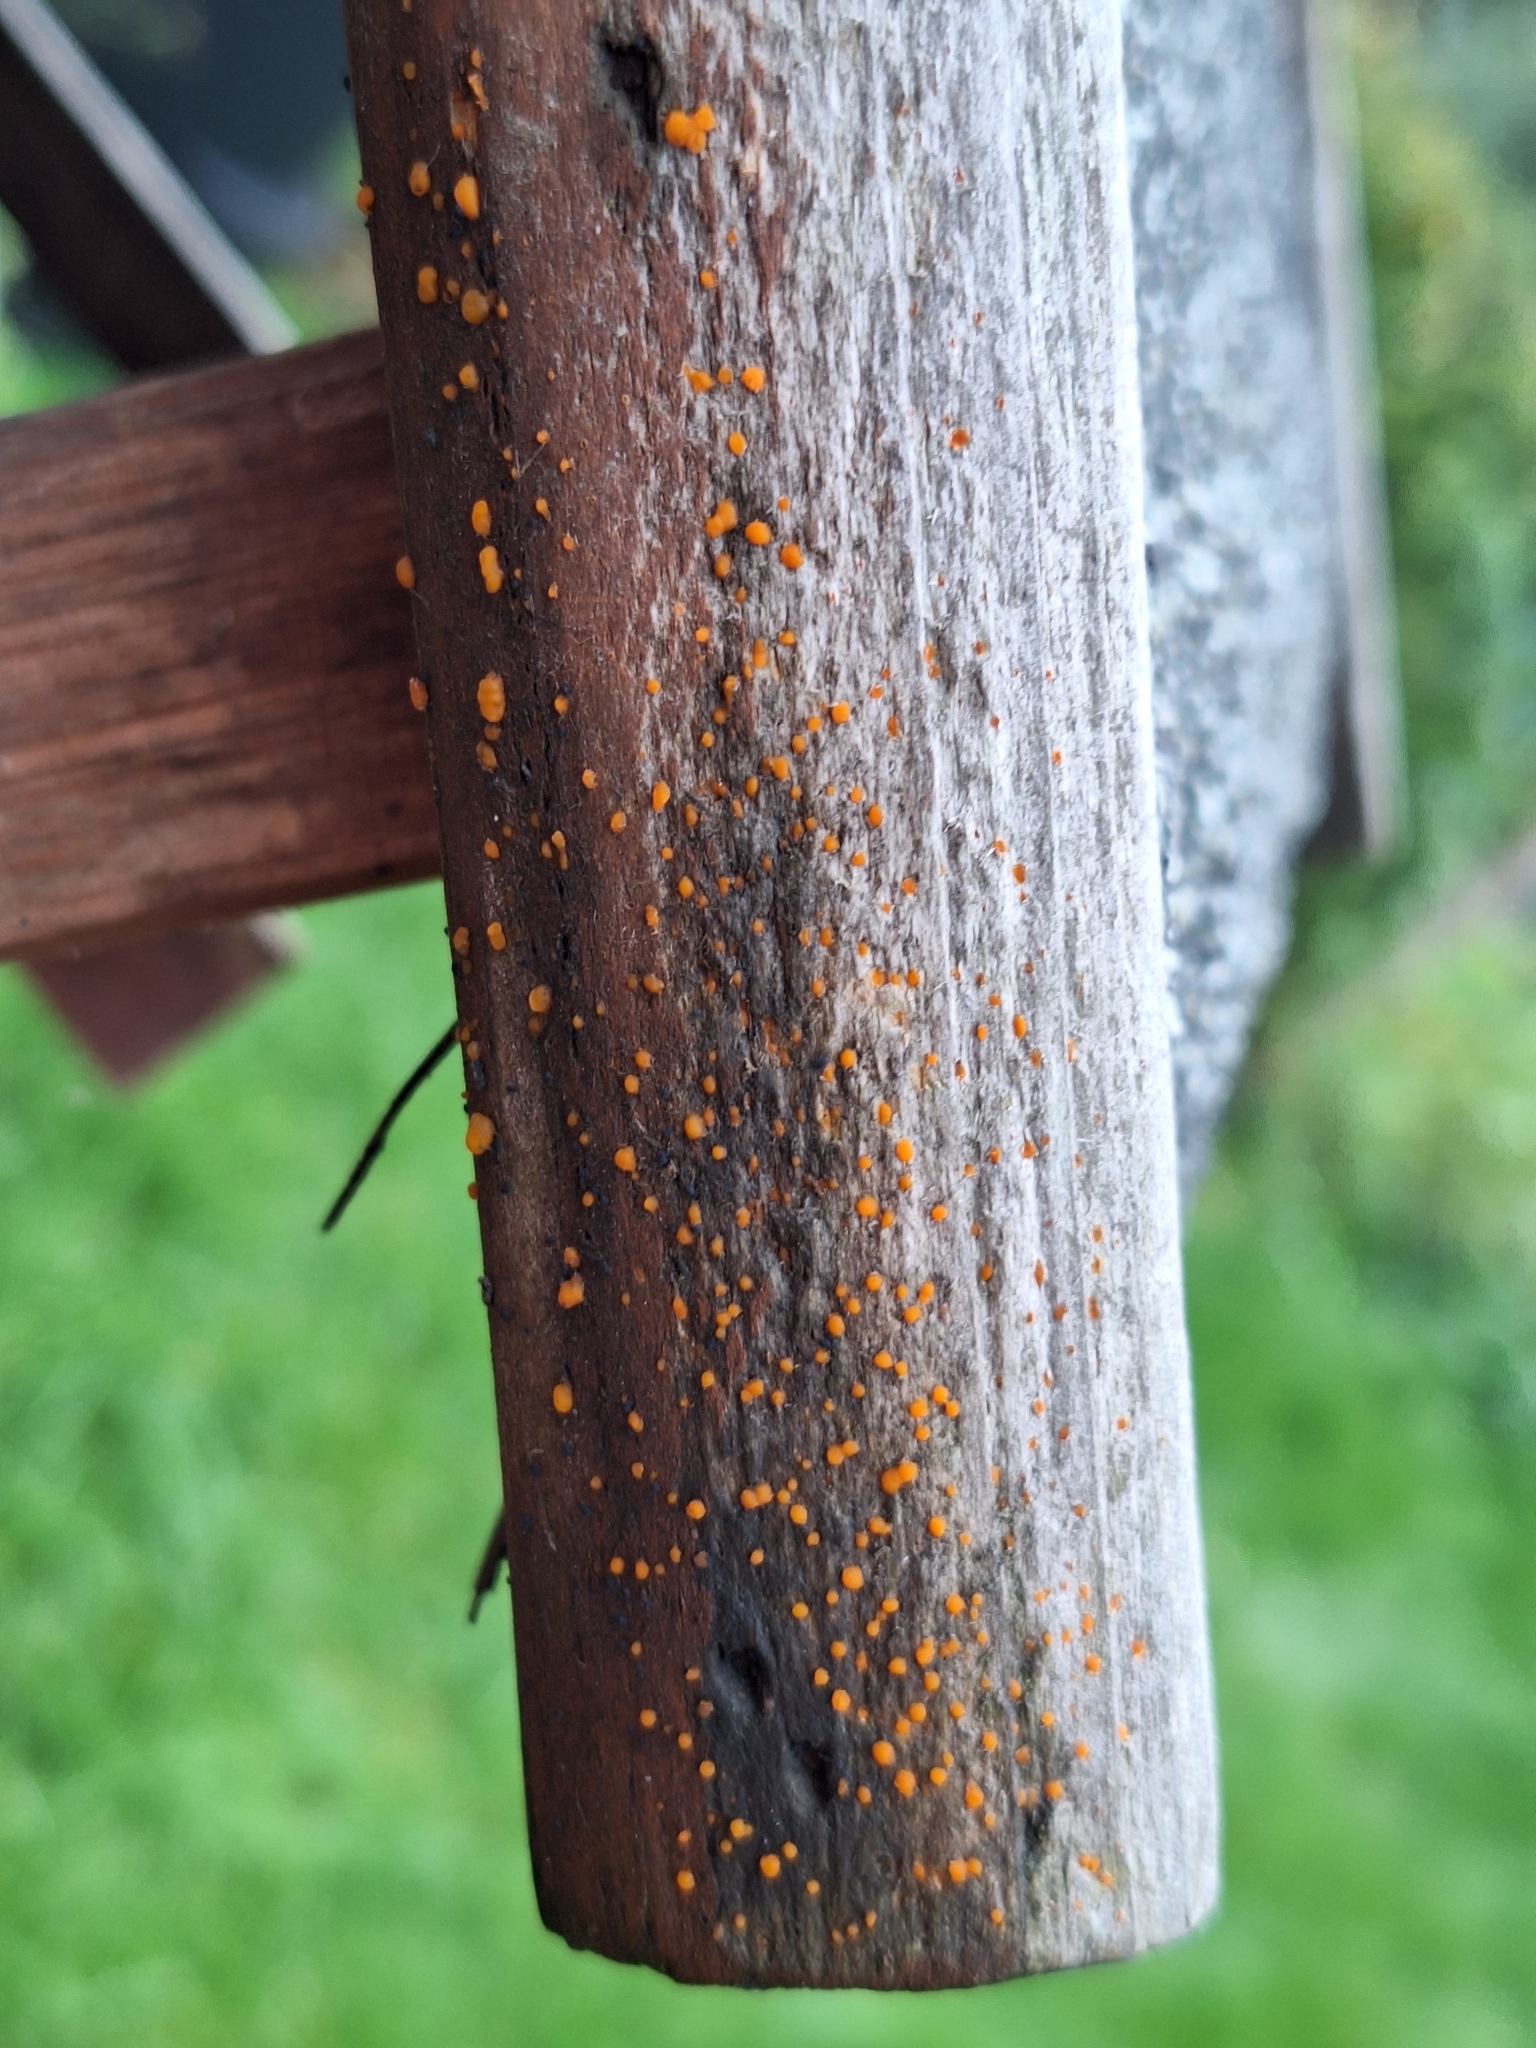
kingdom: Fungi
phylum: Basidiomycota
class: Dacrymycetes
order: Dacrymycetales
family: Dacrymycetaceae
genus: Dacrymyces
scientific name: Dacrymyces stillatus
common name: Common jelly spot
